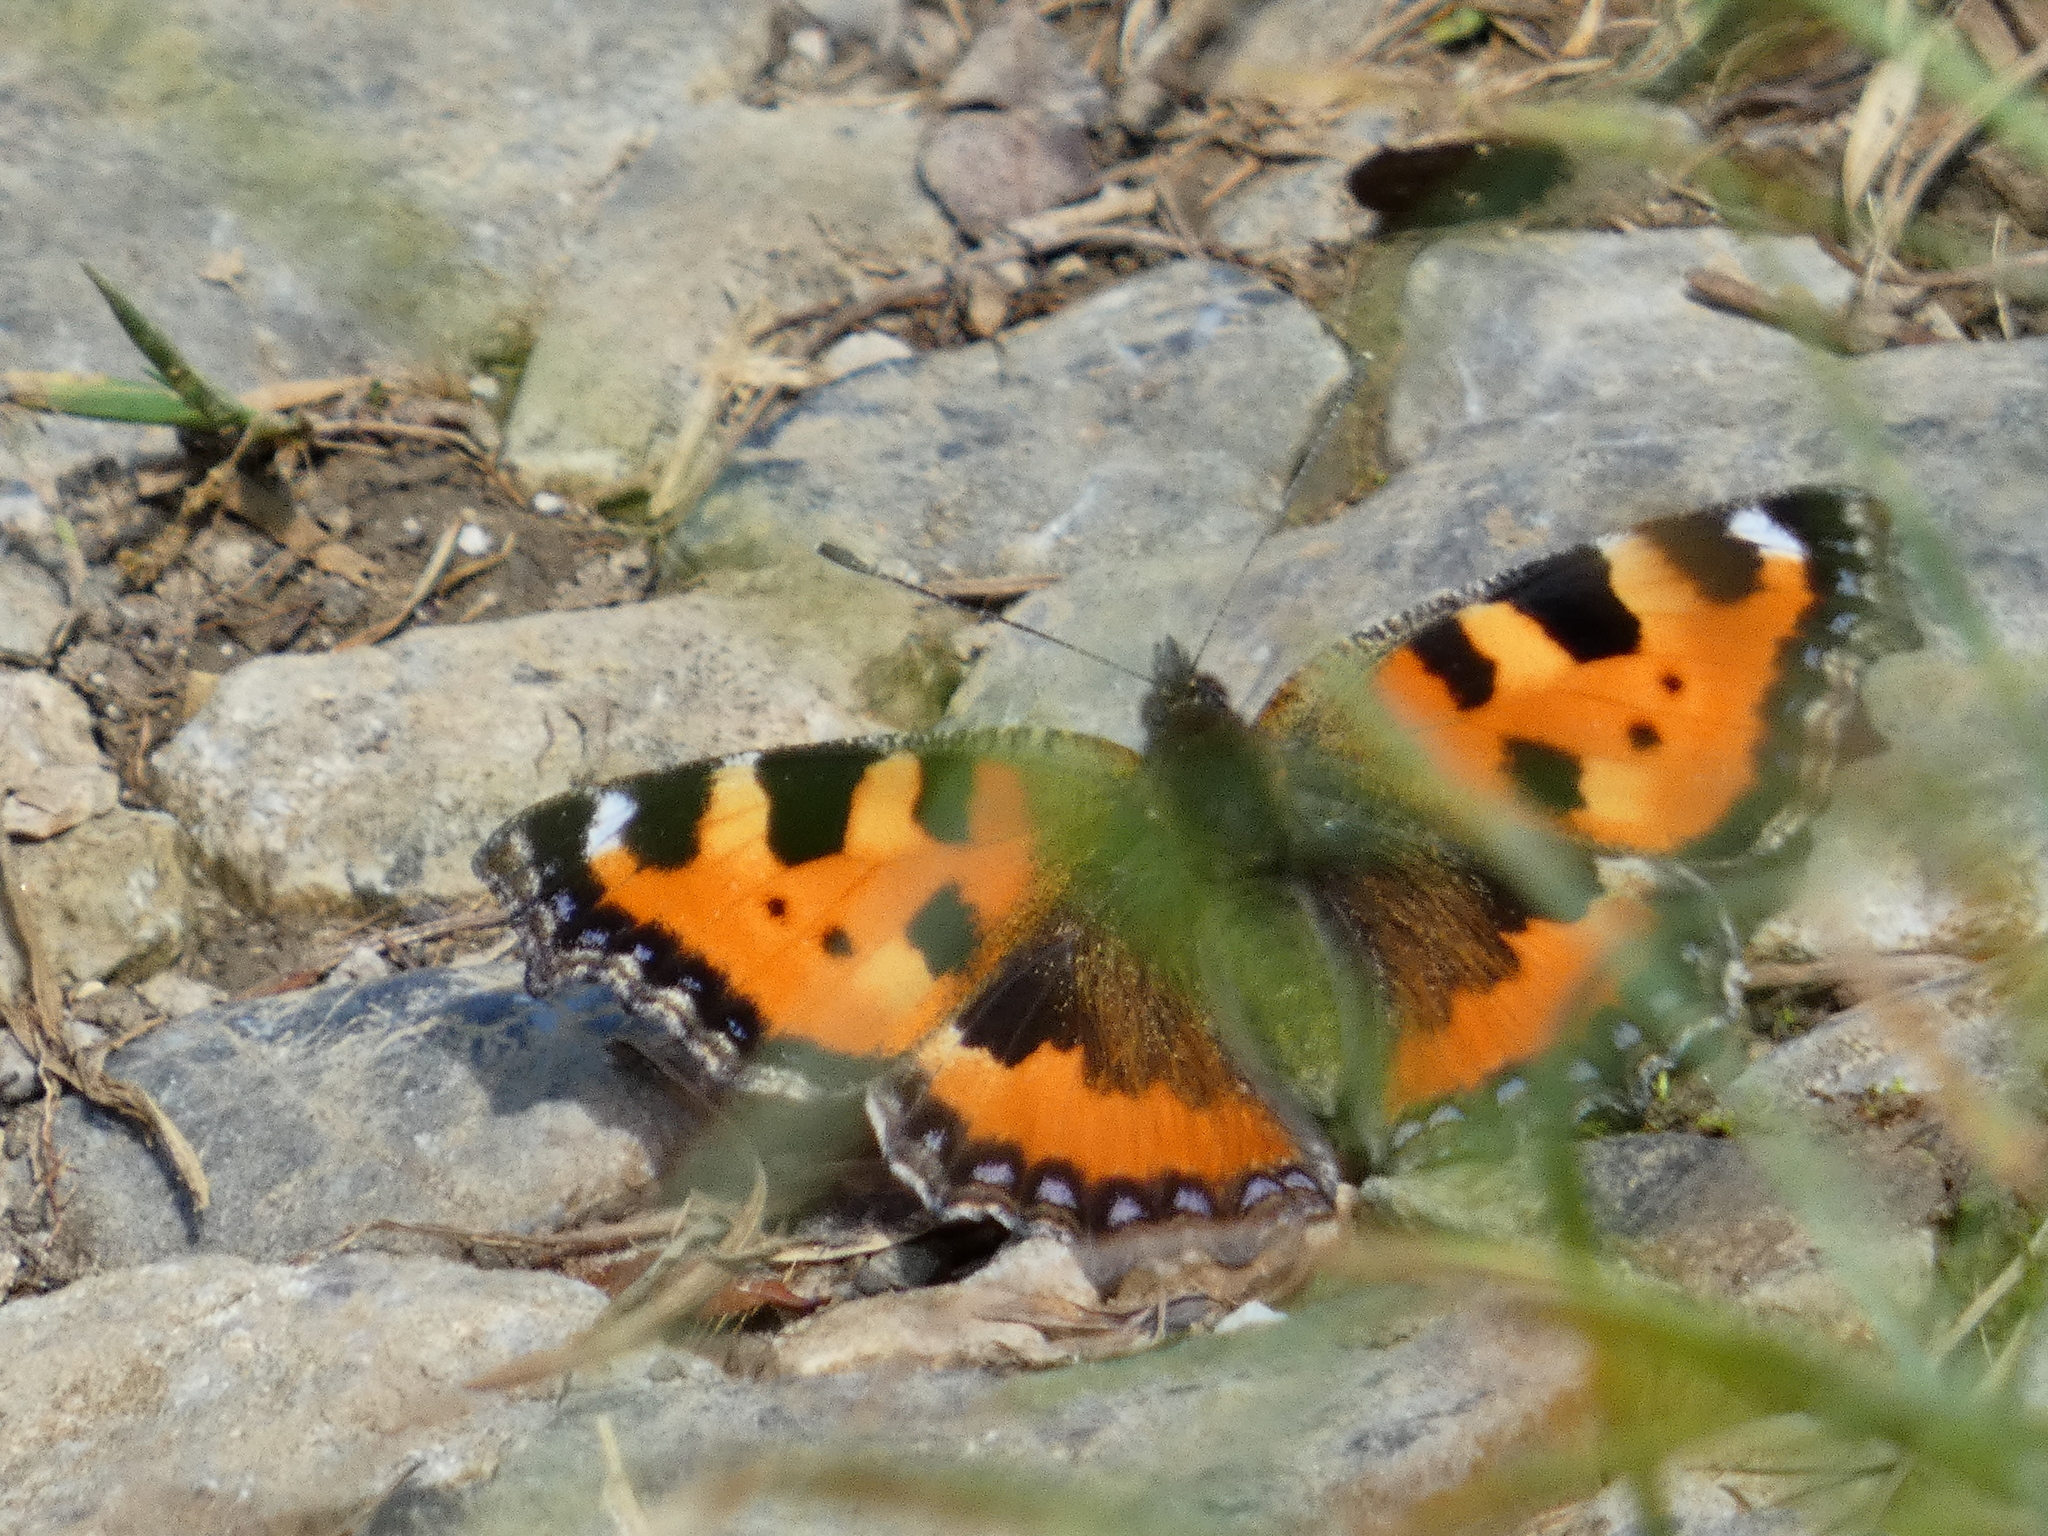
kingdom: Animalia
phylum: Arthropoda
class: Insecta
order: Lepidoptera
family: Nymphalidae
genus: Aglais
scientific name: Aglais urticae
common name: Small tortoiseshell
